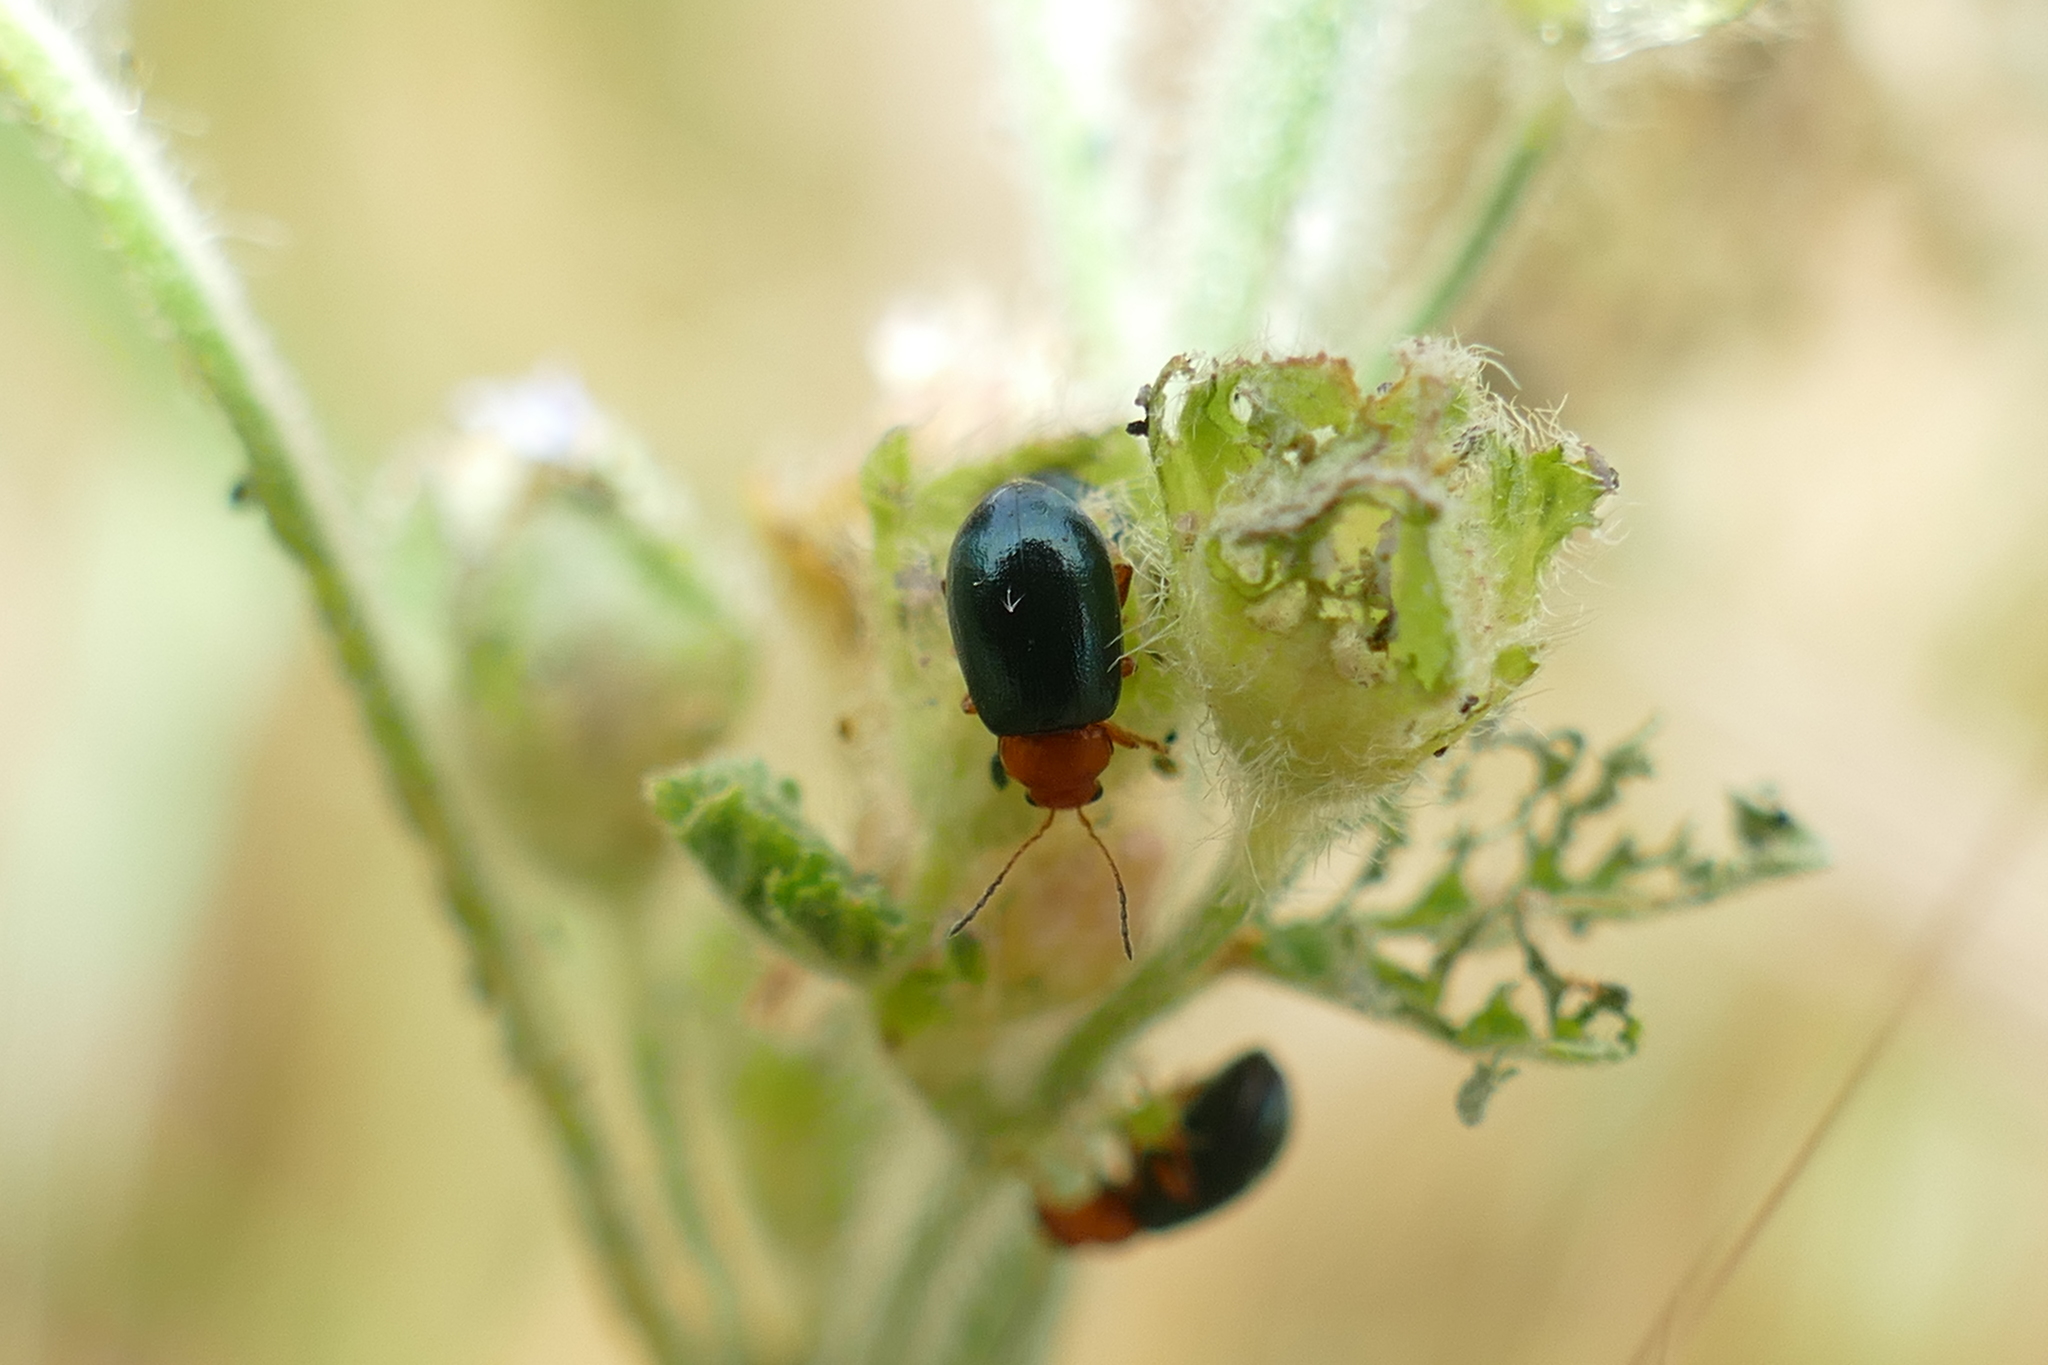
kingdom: Animalia
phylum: Arthropoda
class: Insecta
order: Coleoptera
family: Chrysomelidae
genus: Podagrica
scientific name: Podagrica fuscicornis
